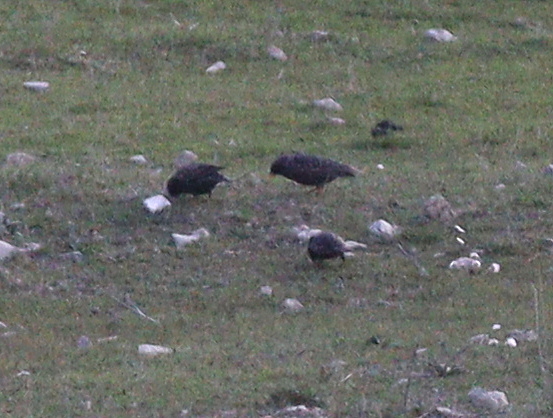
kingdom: Animalia
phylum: Chordata
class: Aves
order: Passeriformes
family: Sturnidae
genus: Sturnus
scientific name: Sturnus vulgaris
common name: Common starling
